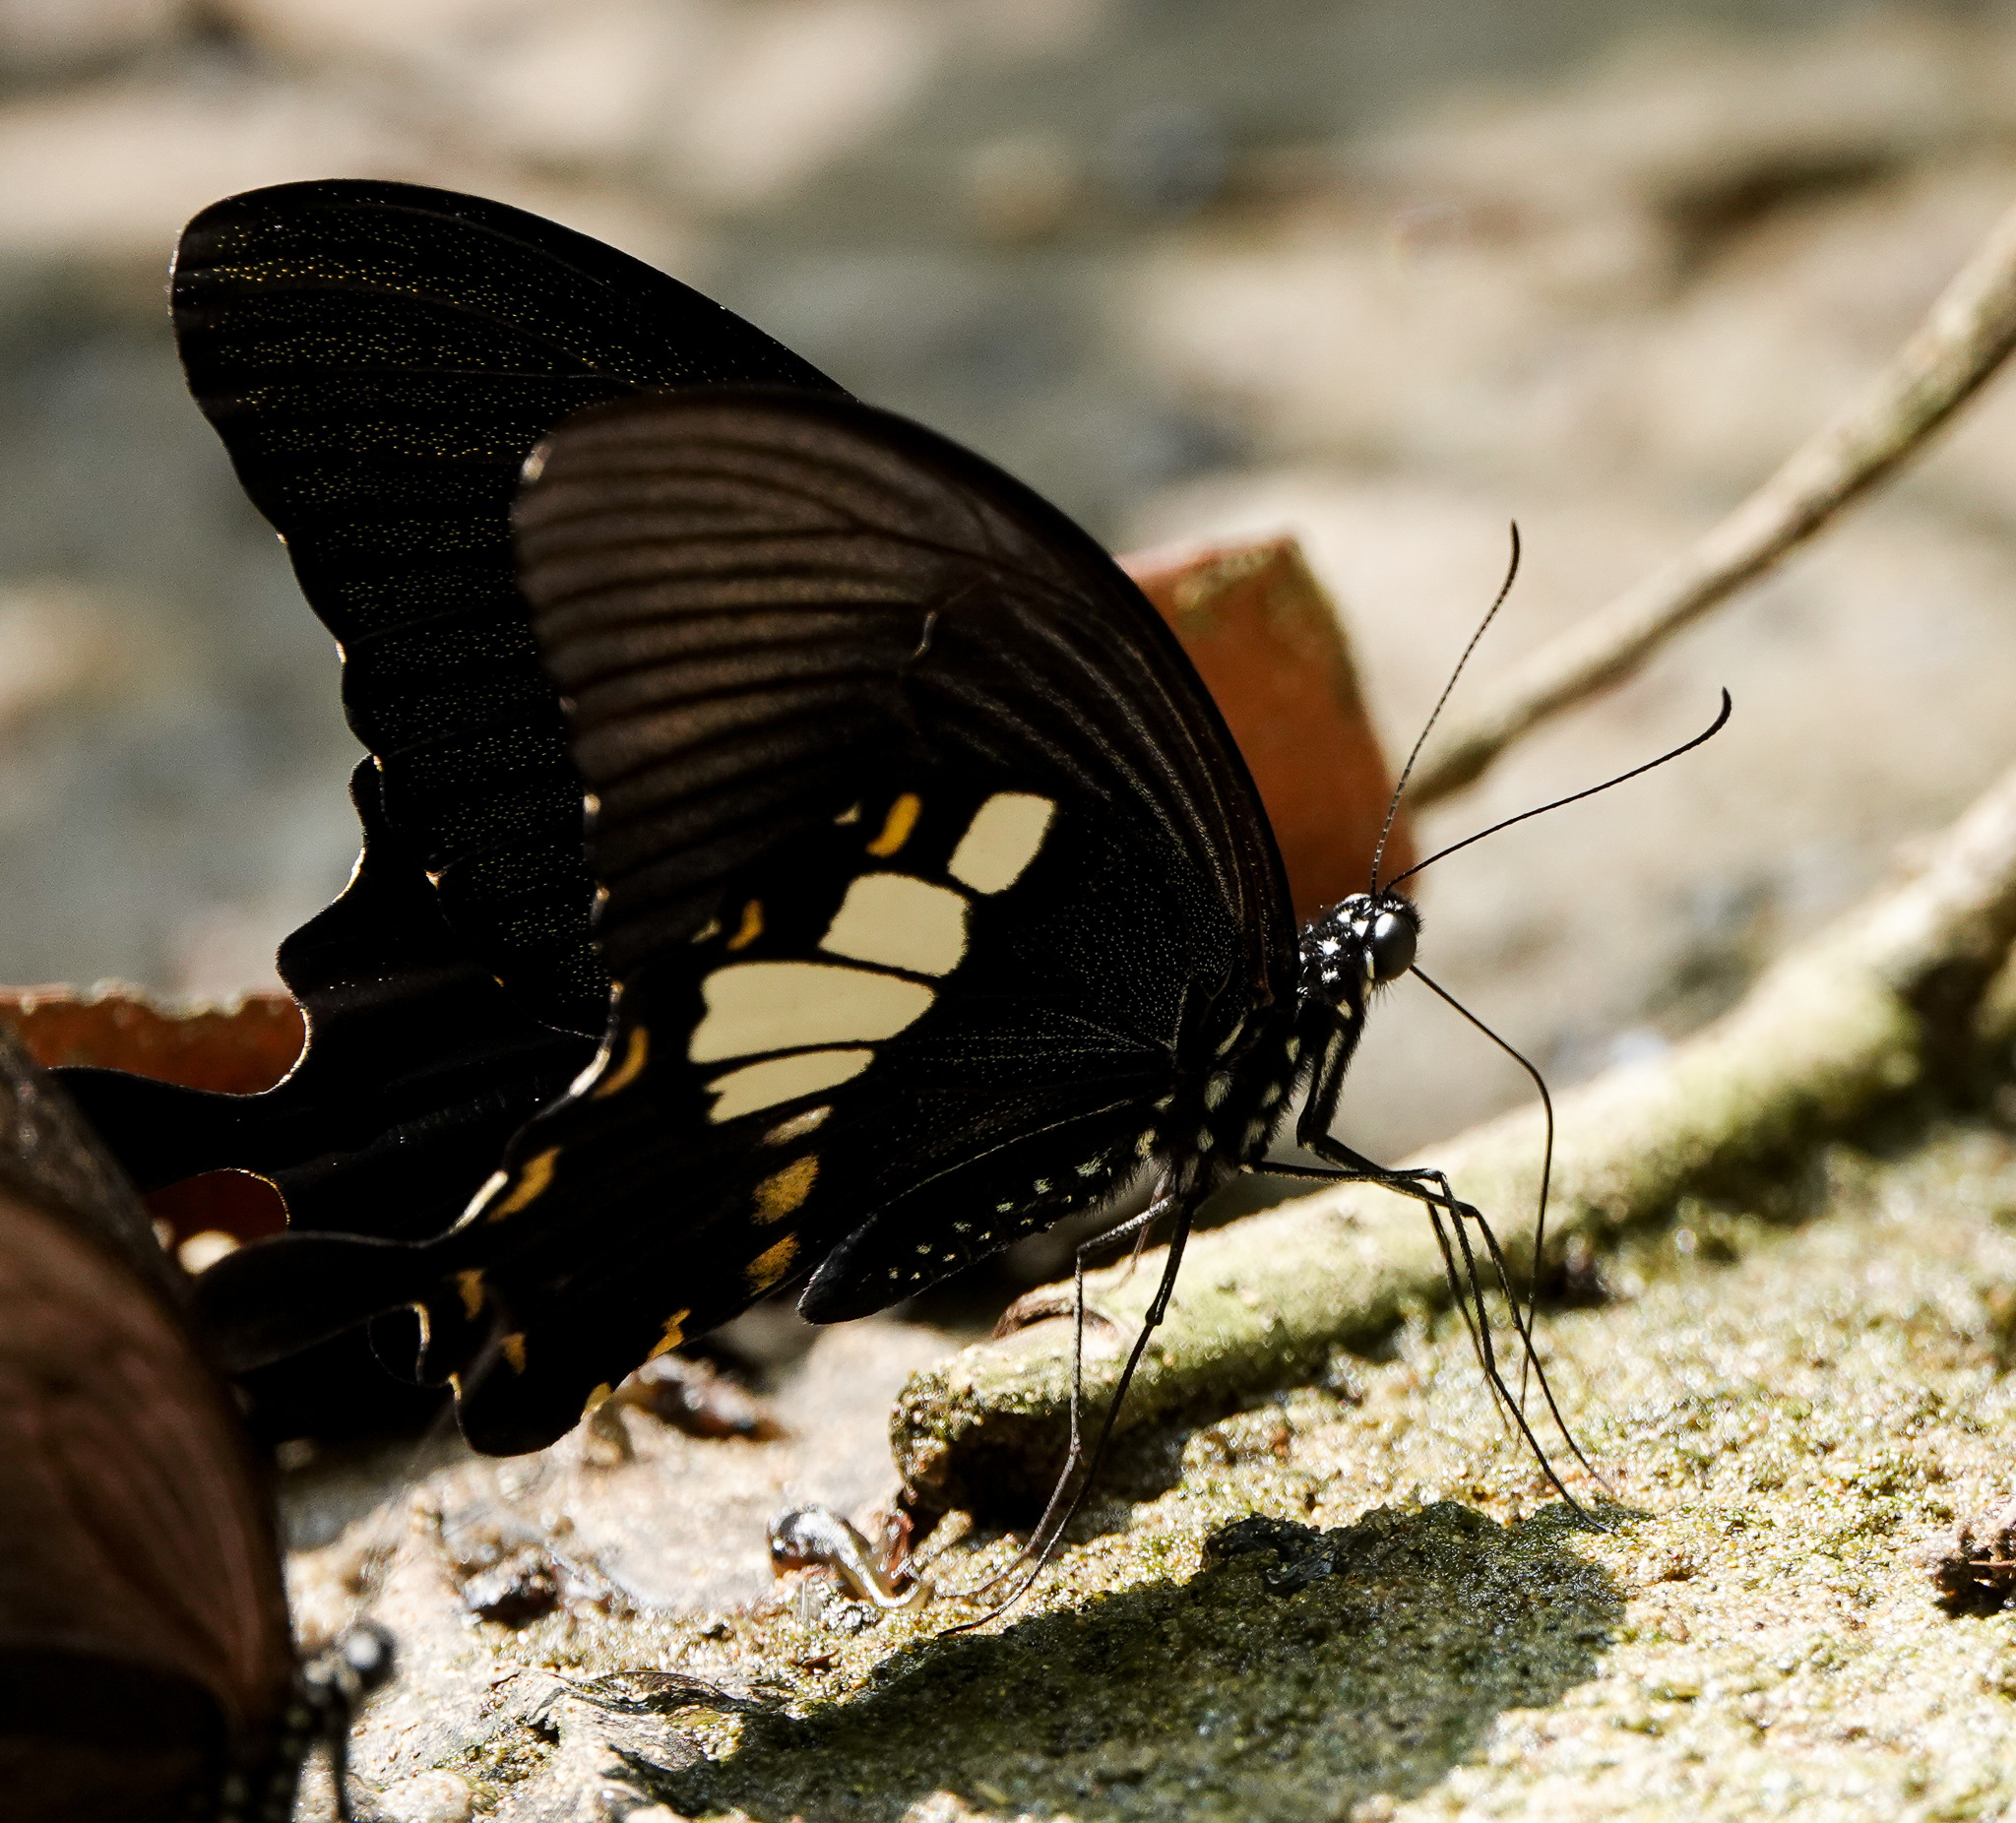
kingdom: Animalia
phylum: Arthropoda
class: Insecta
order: Lepidoptera
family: Papilionidae
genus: Papilio
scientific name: Papilio nephelus
